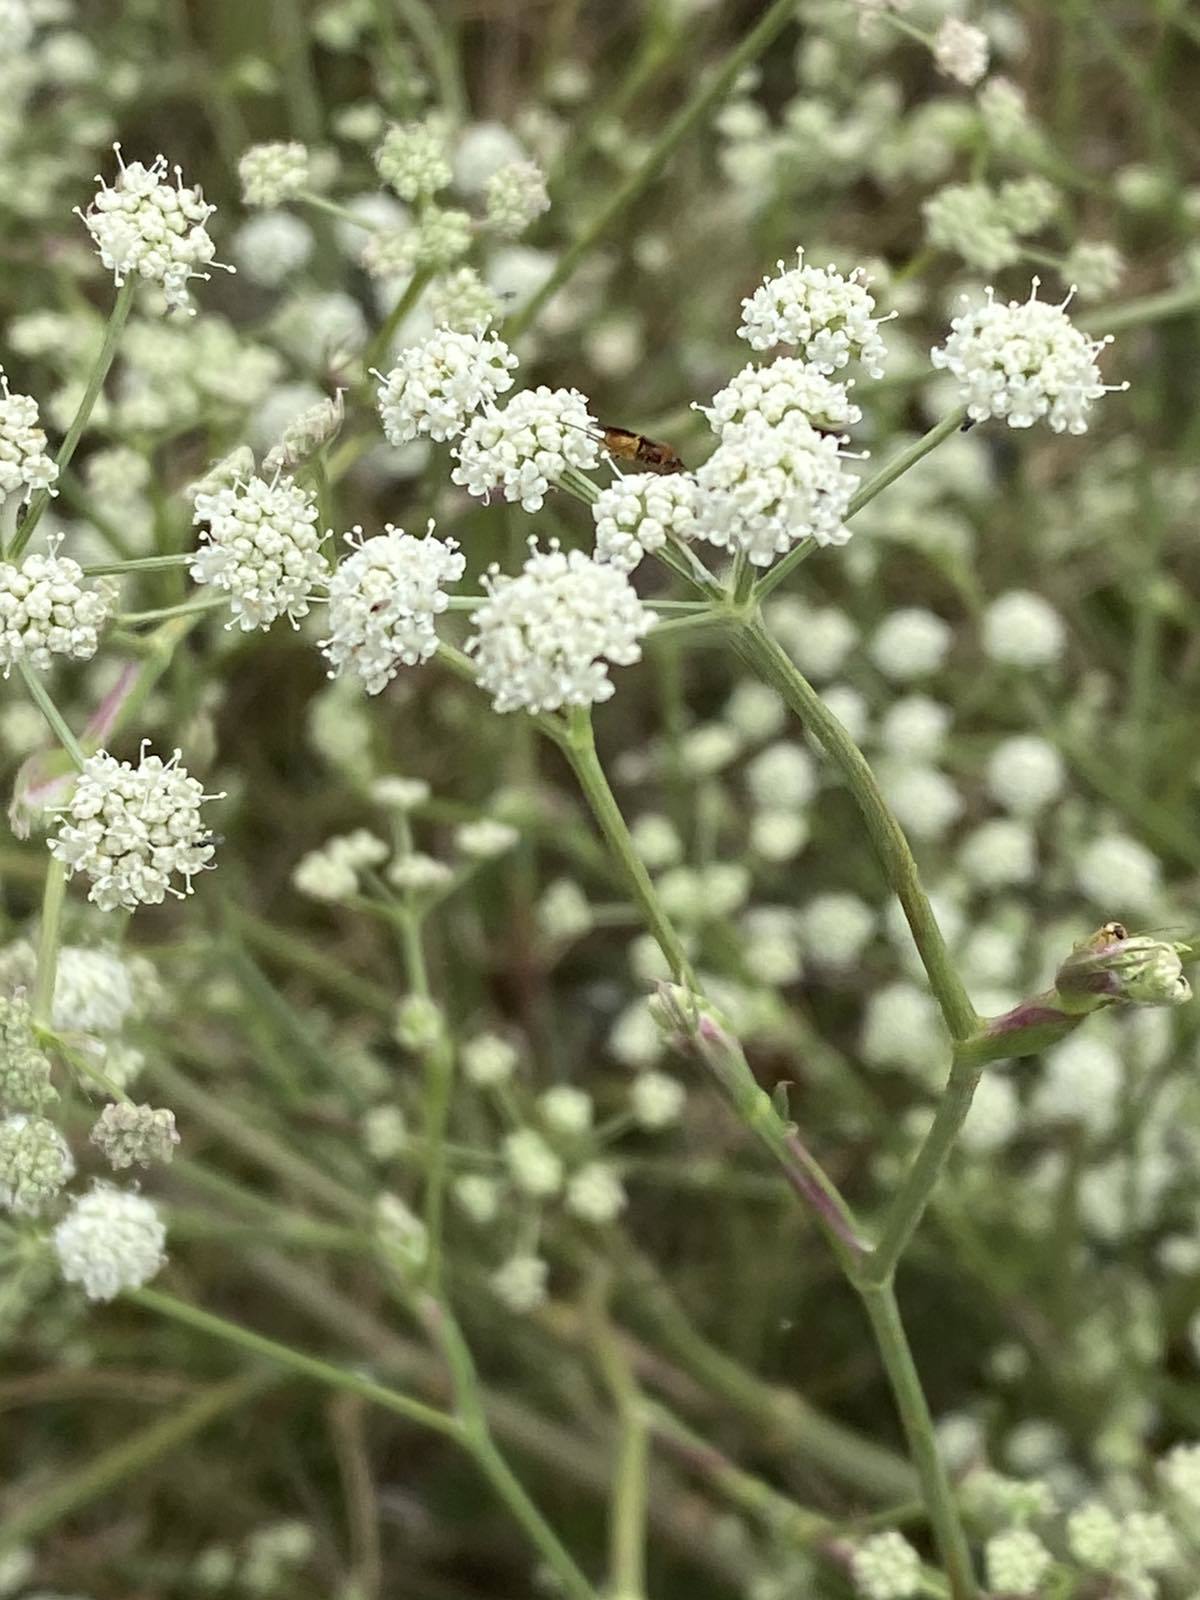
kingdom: Plantae
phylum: Tracheophyta
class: Magnoliopsida
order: Apiales
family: Apiaceae
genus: Seseli
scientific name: Seseli arenarium
